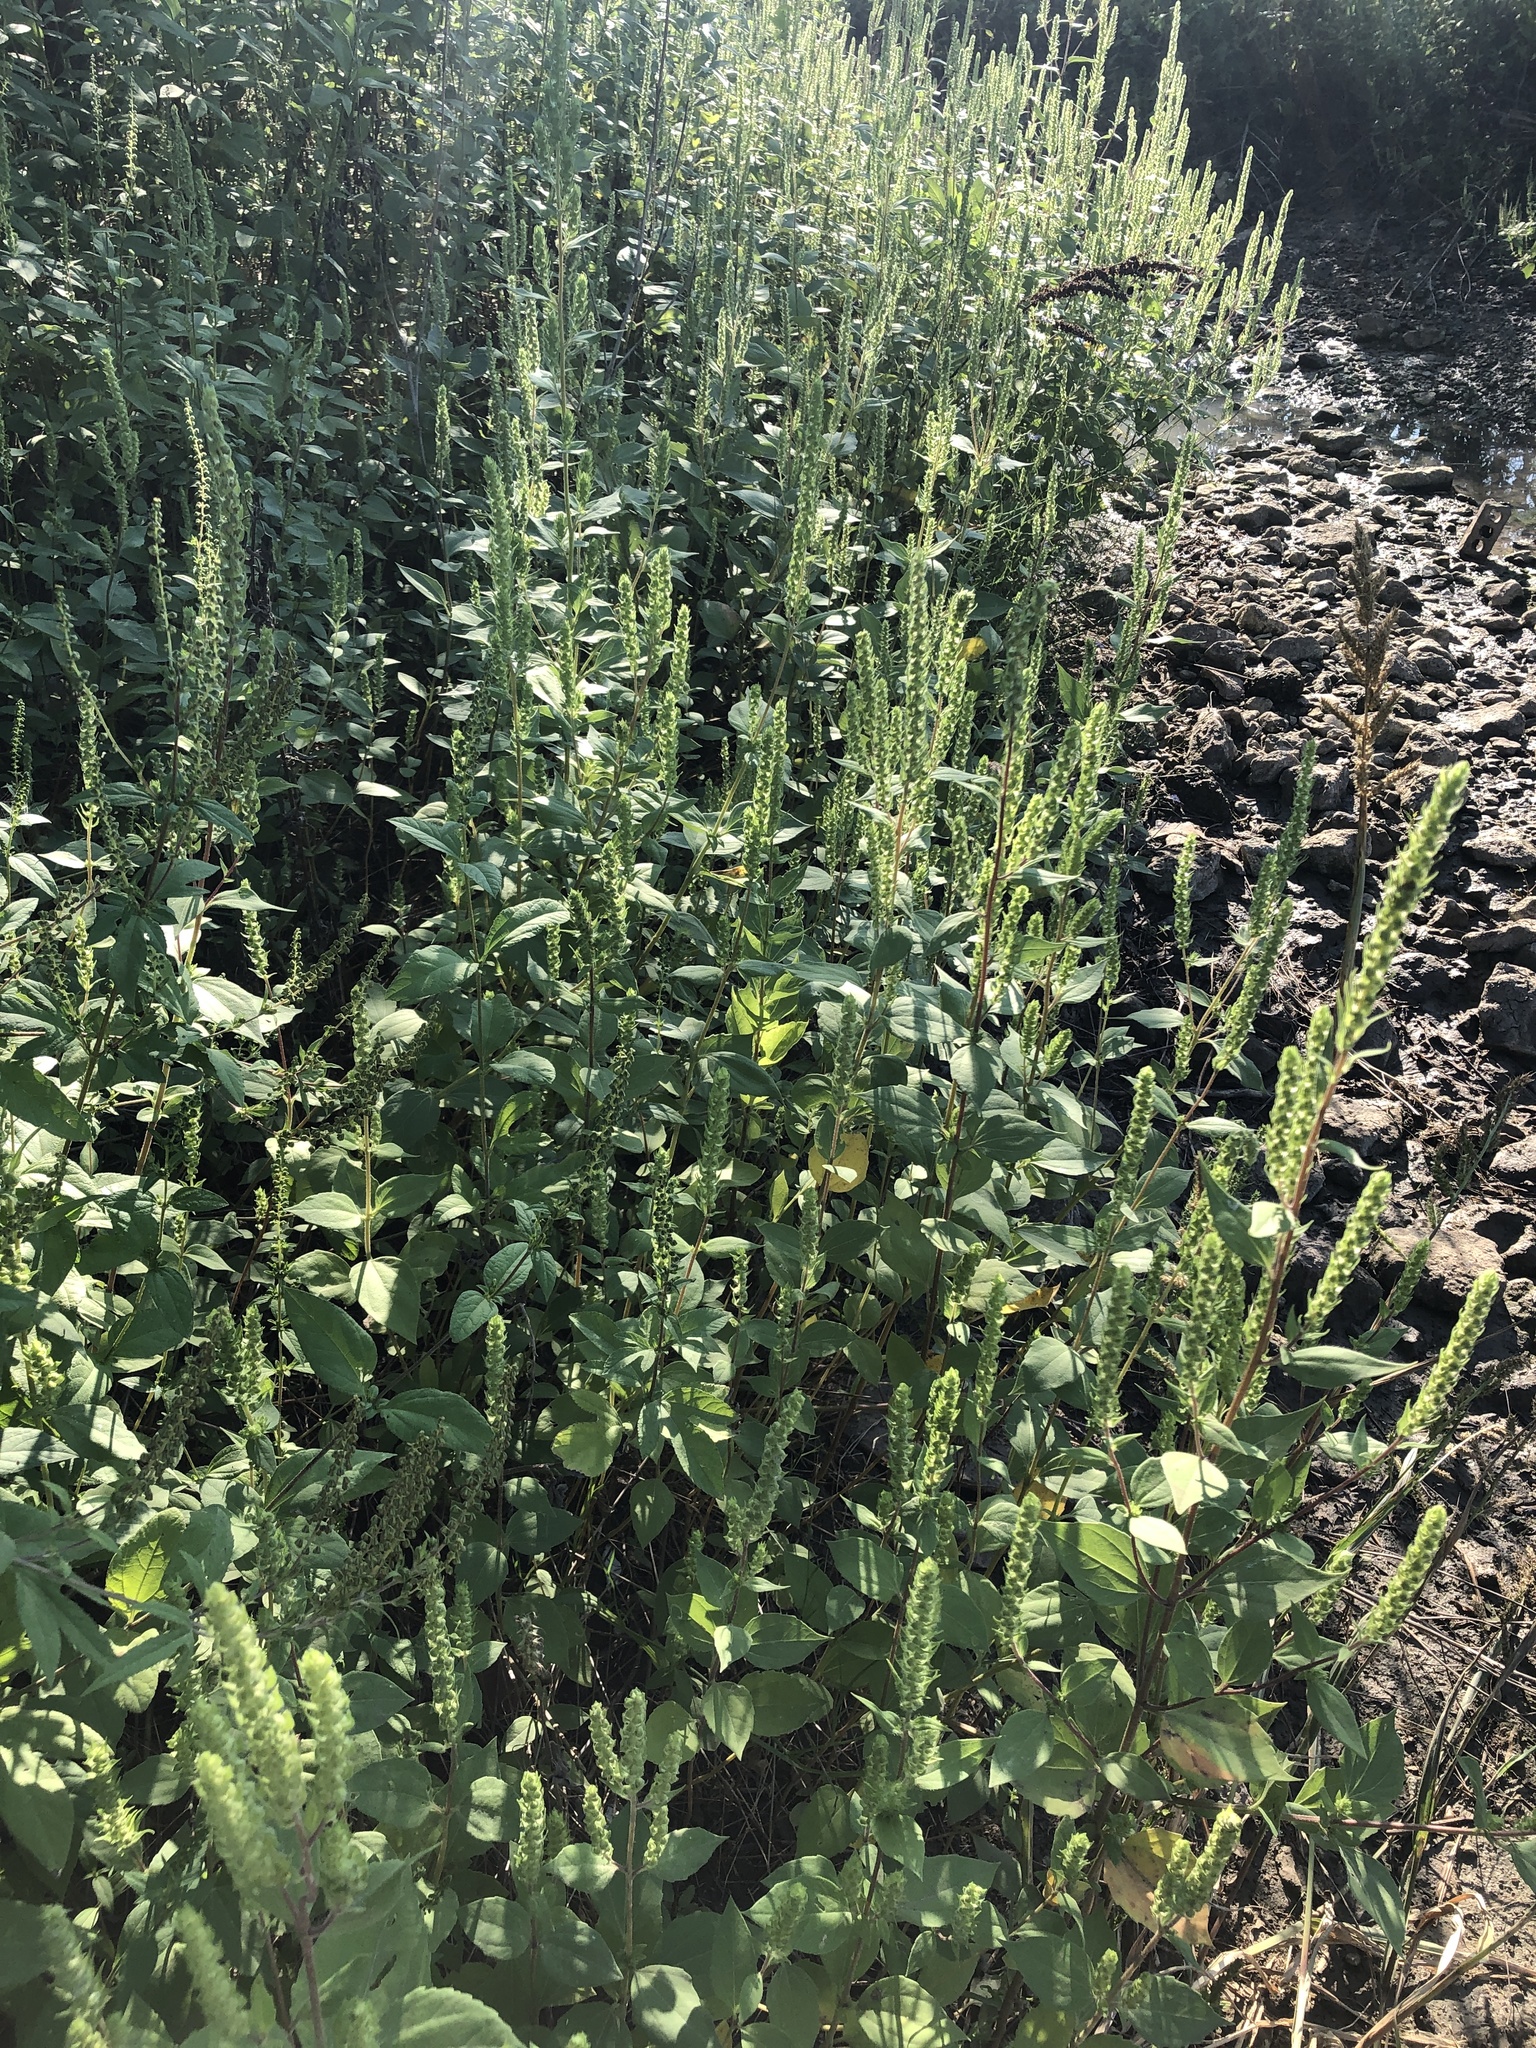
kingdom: Plantae
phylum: Tracheophyta
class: Magnoliopsida
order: Asterales
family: Asteraceae
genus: Iva
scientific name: Iva annua
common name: Marsh-elder
